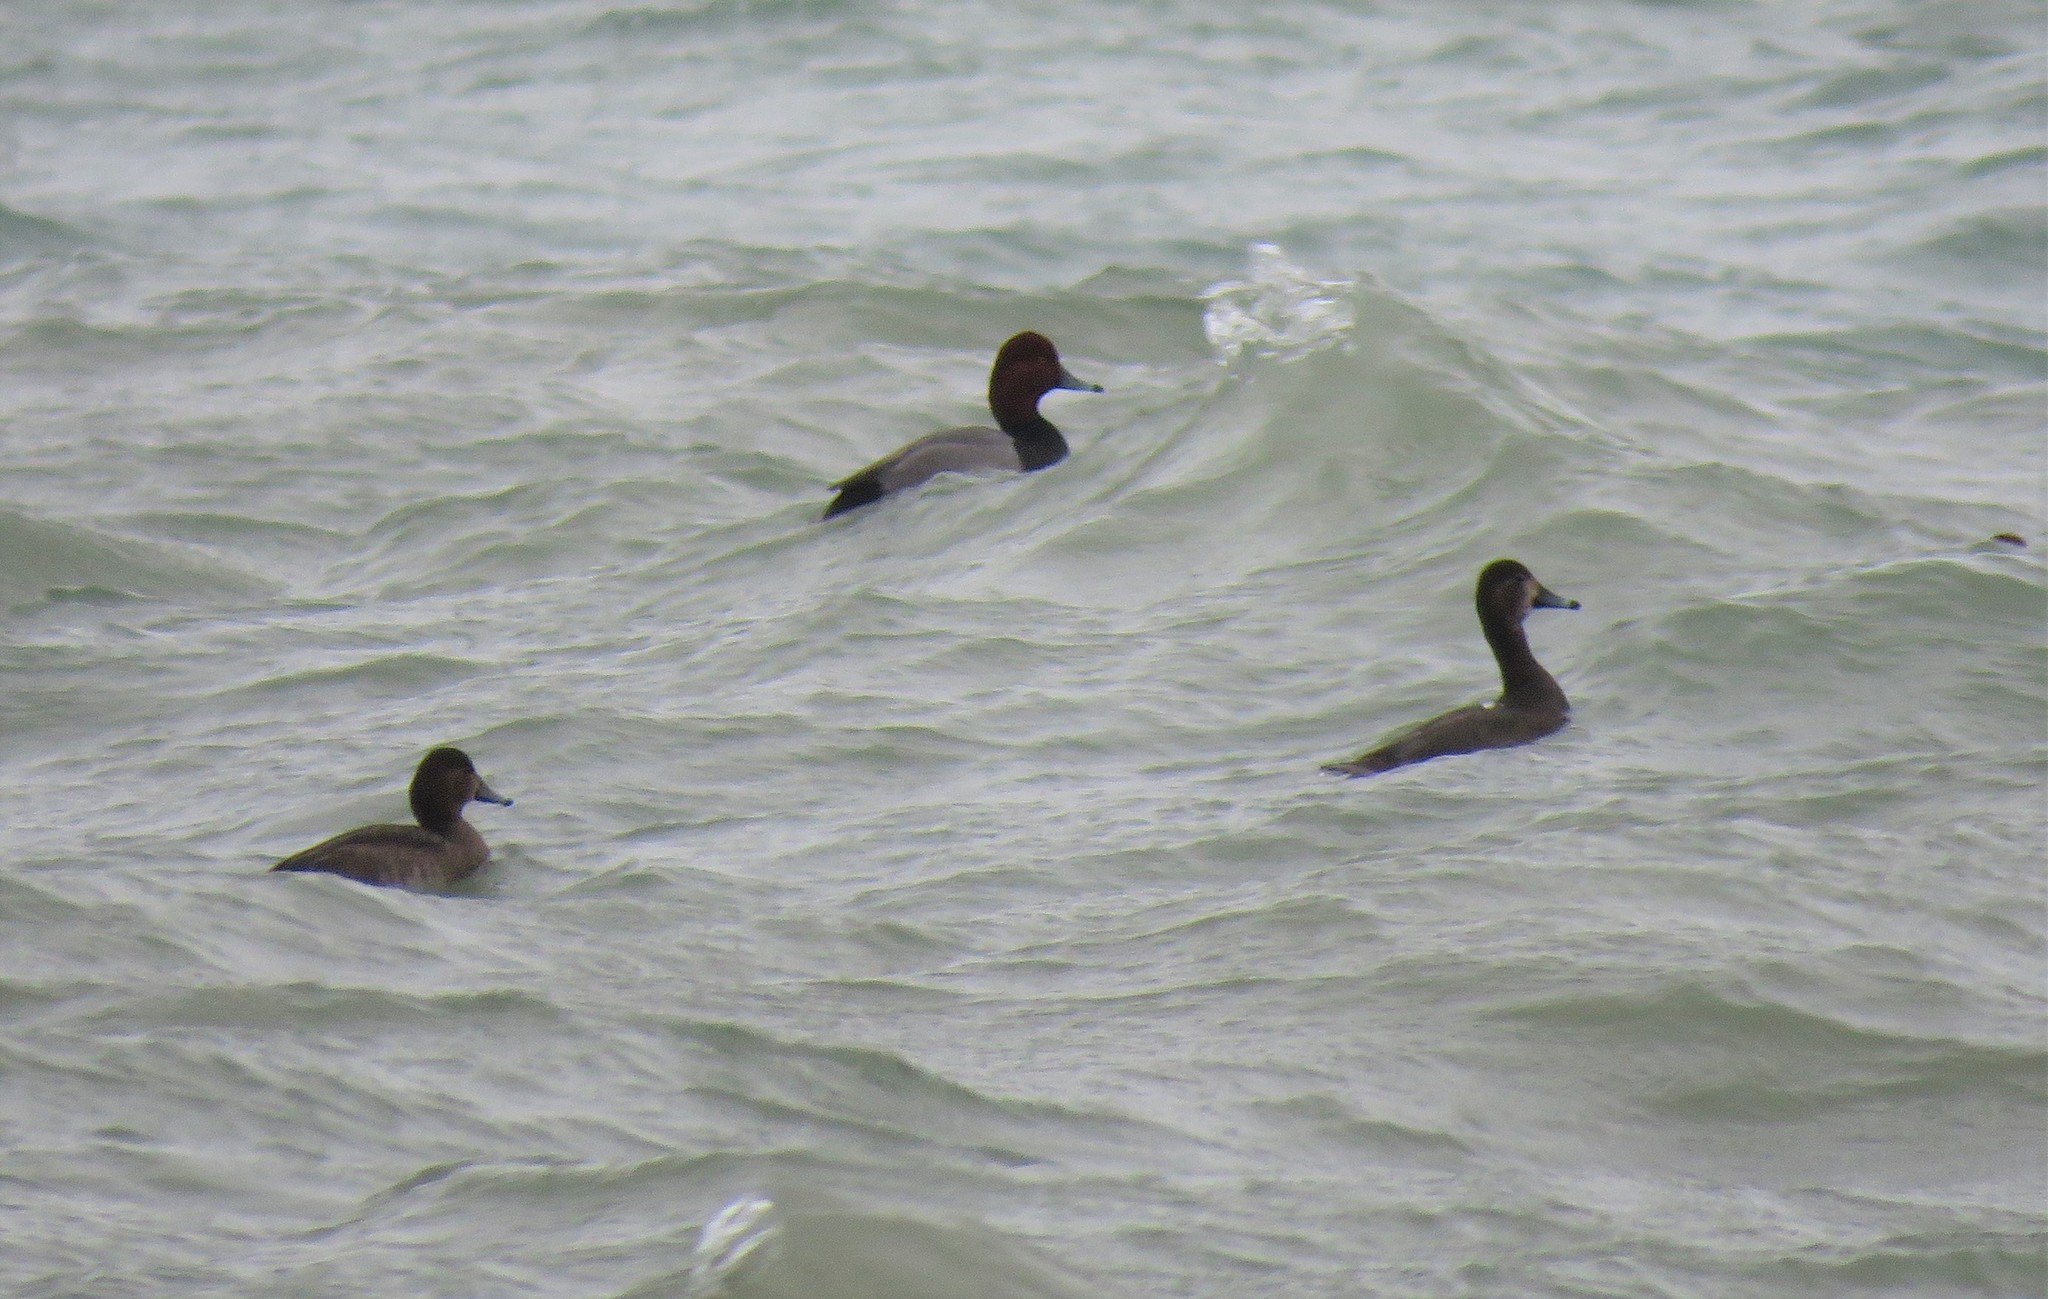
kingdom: Animalia
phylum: Chordata
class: Aves
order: Anseriformes
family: Anatidae
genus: Aythya
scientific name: Aythya americana
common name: Redhead
